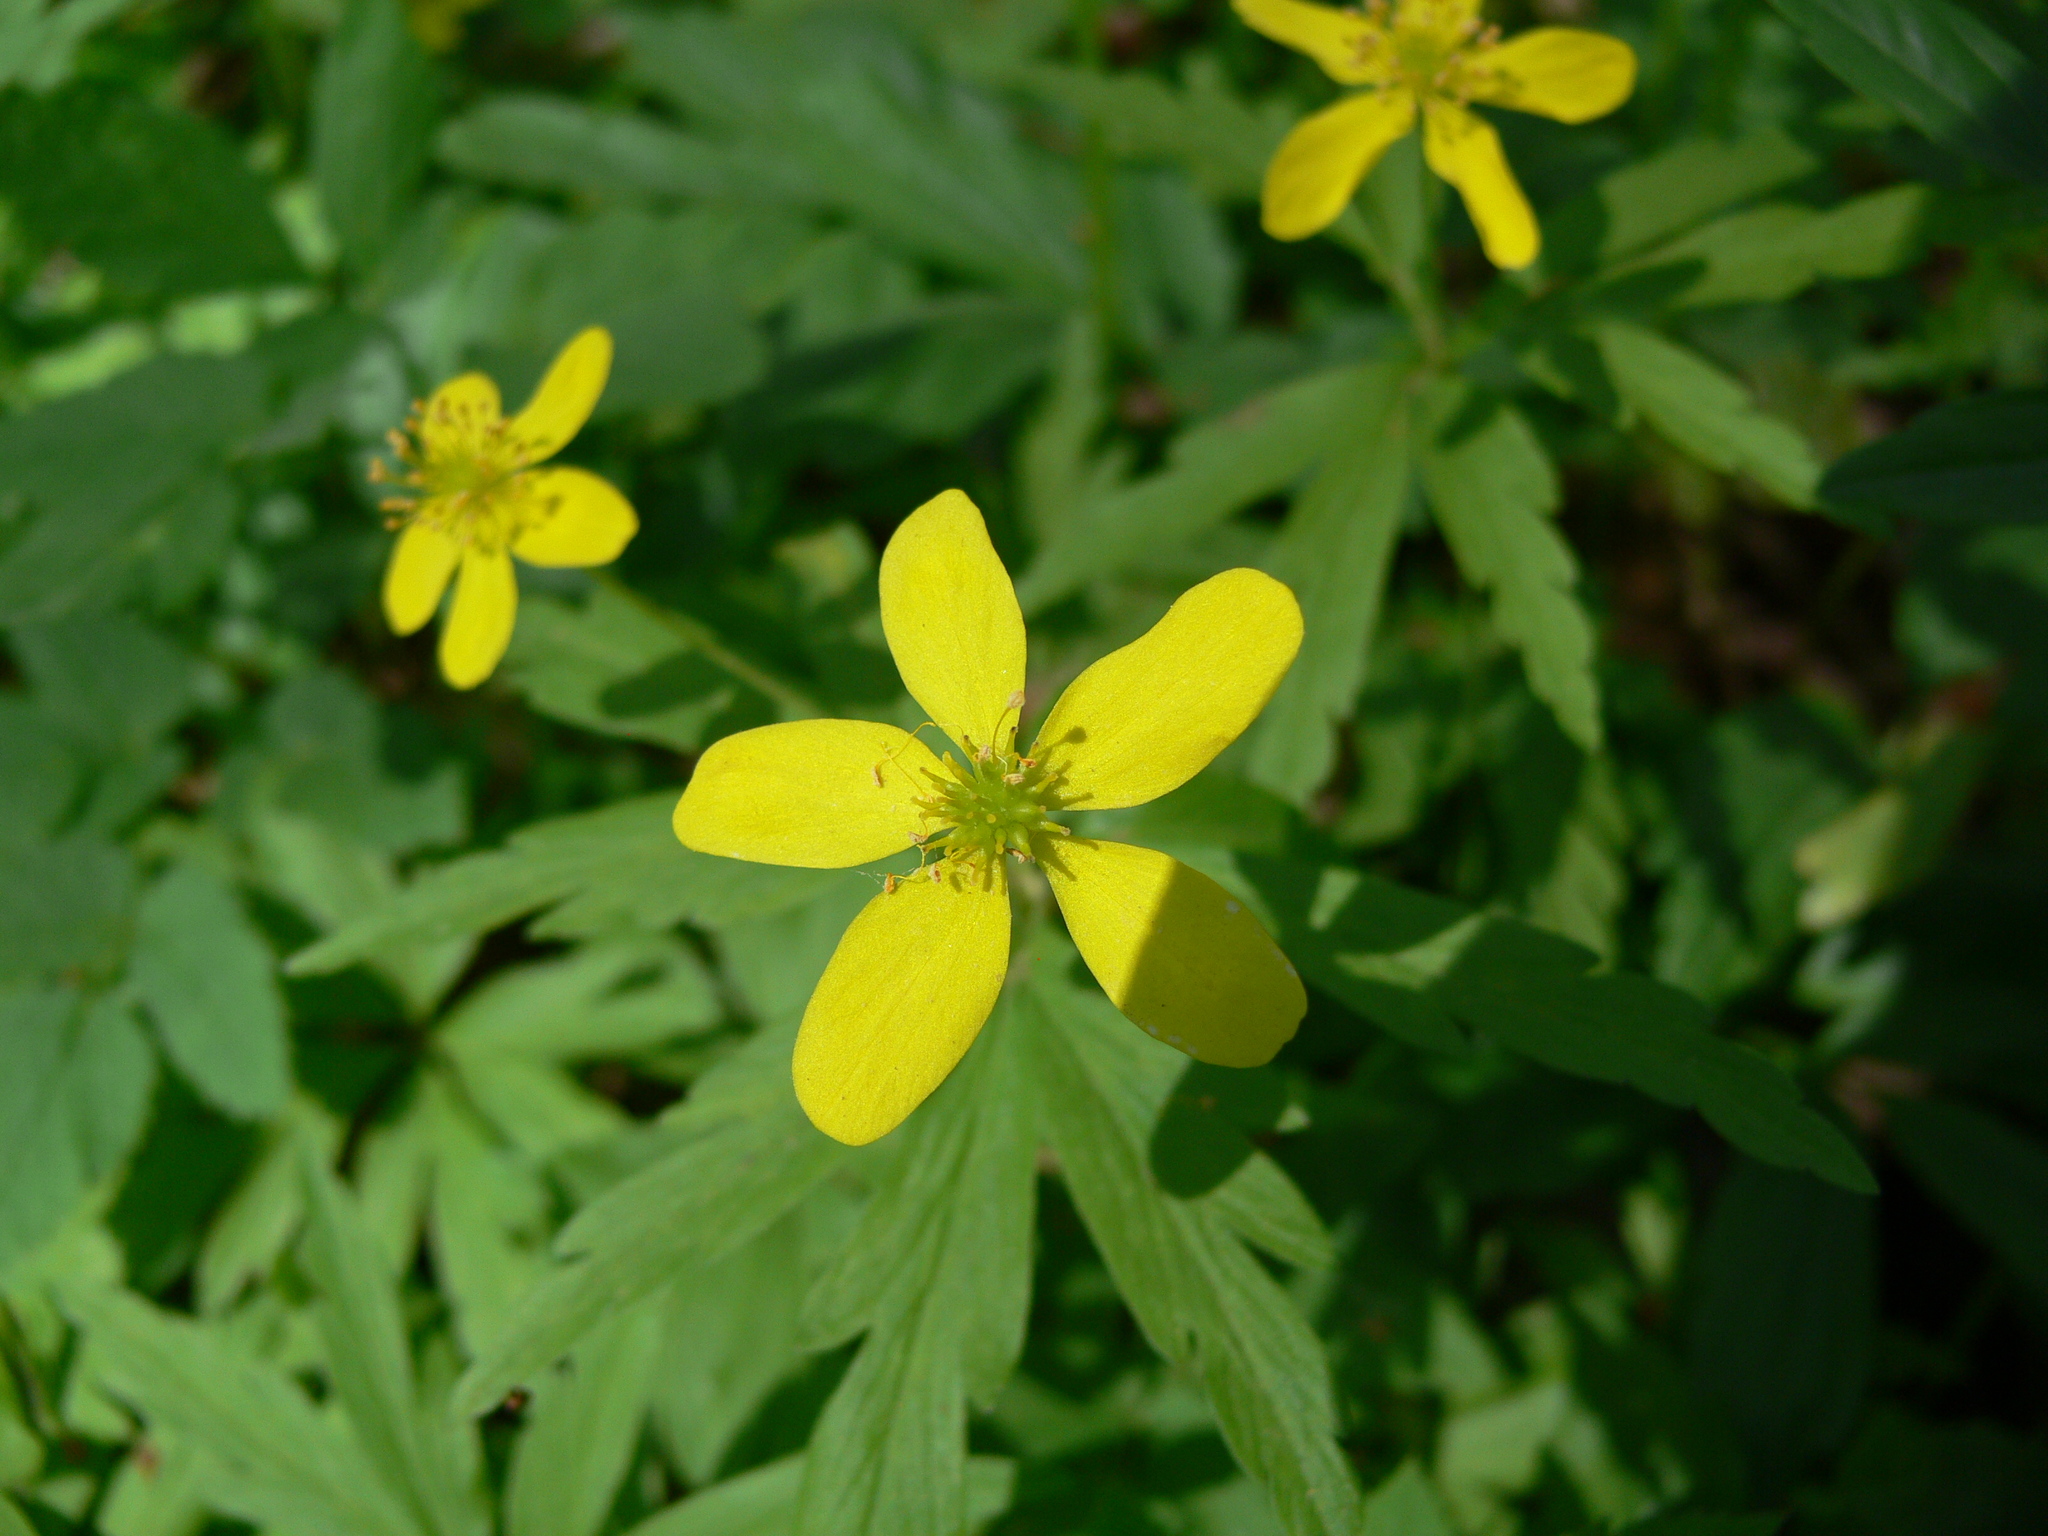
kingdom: Plantae
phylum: Tracheophyta
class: Magnoliopsida
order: Ranunculales
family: Ranunculaceae
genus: Anemone
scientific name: Anemone ranunculoides
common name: Yellow anemone
